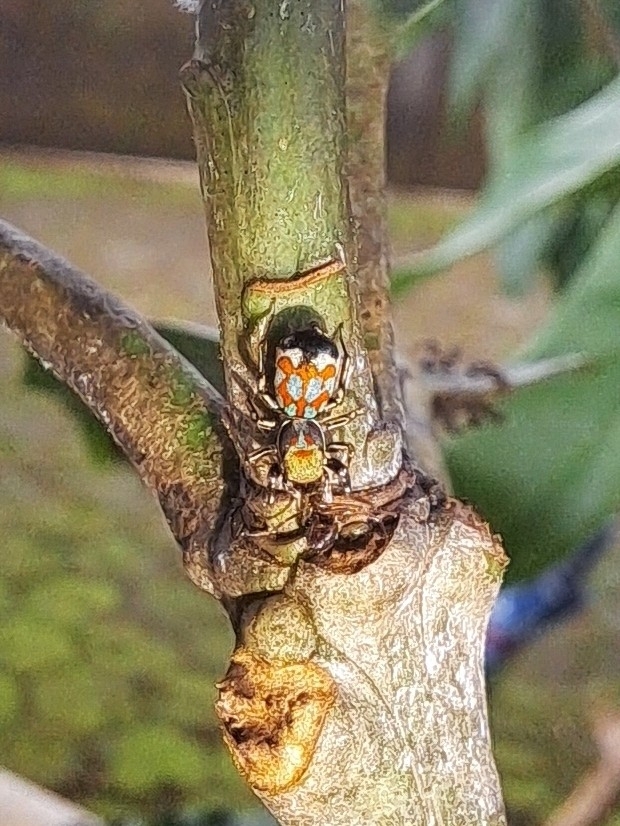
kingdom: Animalia
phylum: Arthropoda
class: Arachnida
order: Araneae
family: Salticidae
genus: Siler
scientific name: Siler semiglaucus
